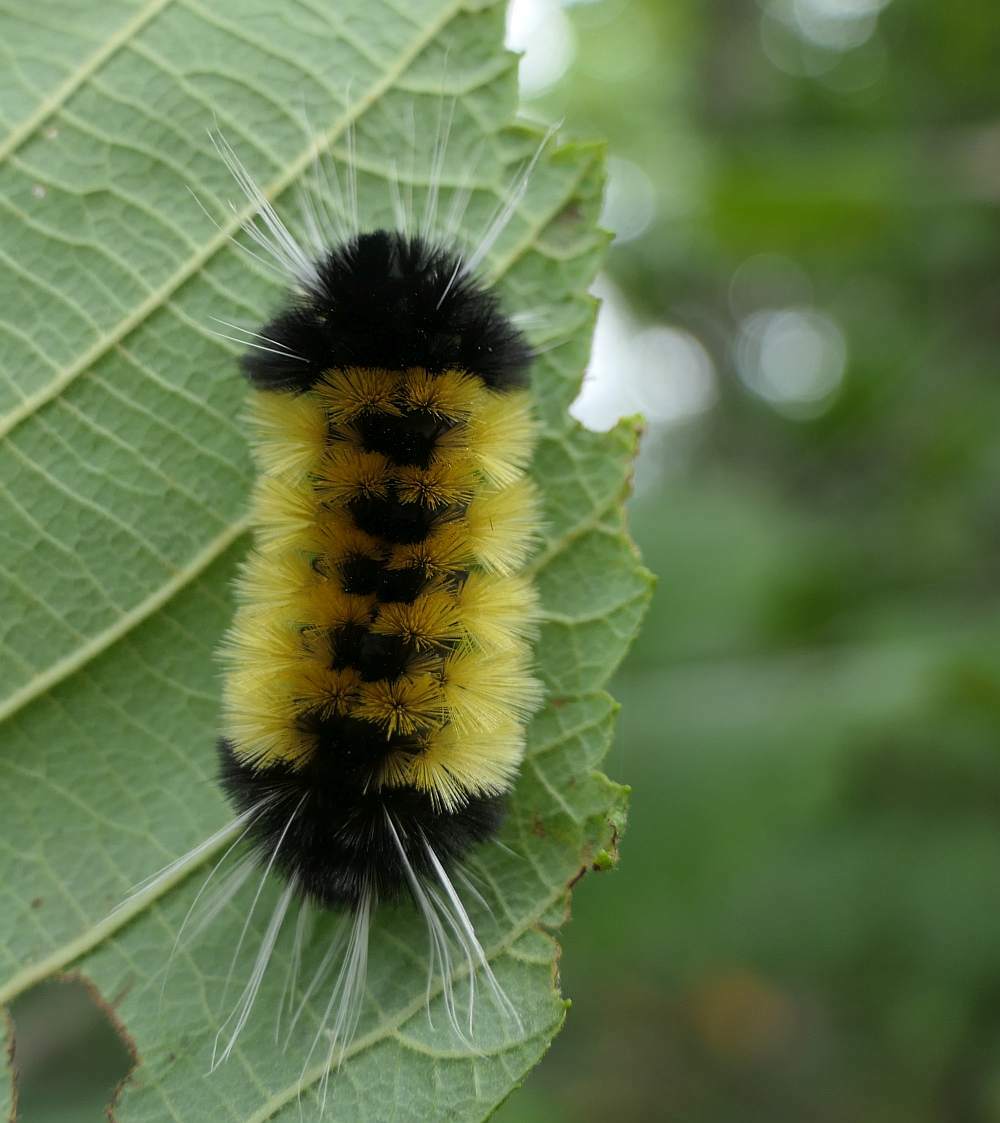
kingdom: Animalia
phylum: Arthropoda
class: Insecta
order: Lepidoptera
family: Erebidae
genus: Lophocampa
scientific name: Lophocampa maculata
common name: Spotted tussock moth
